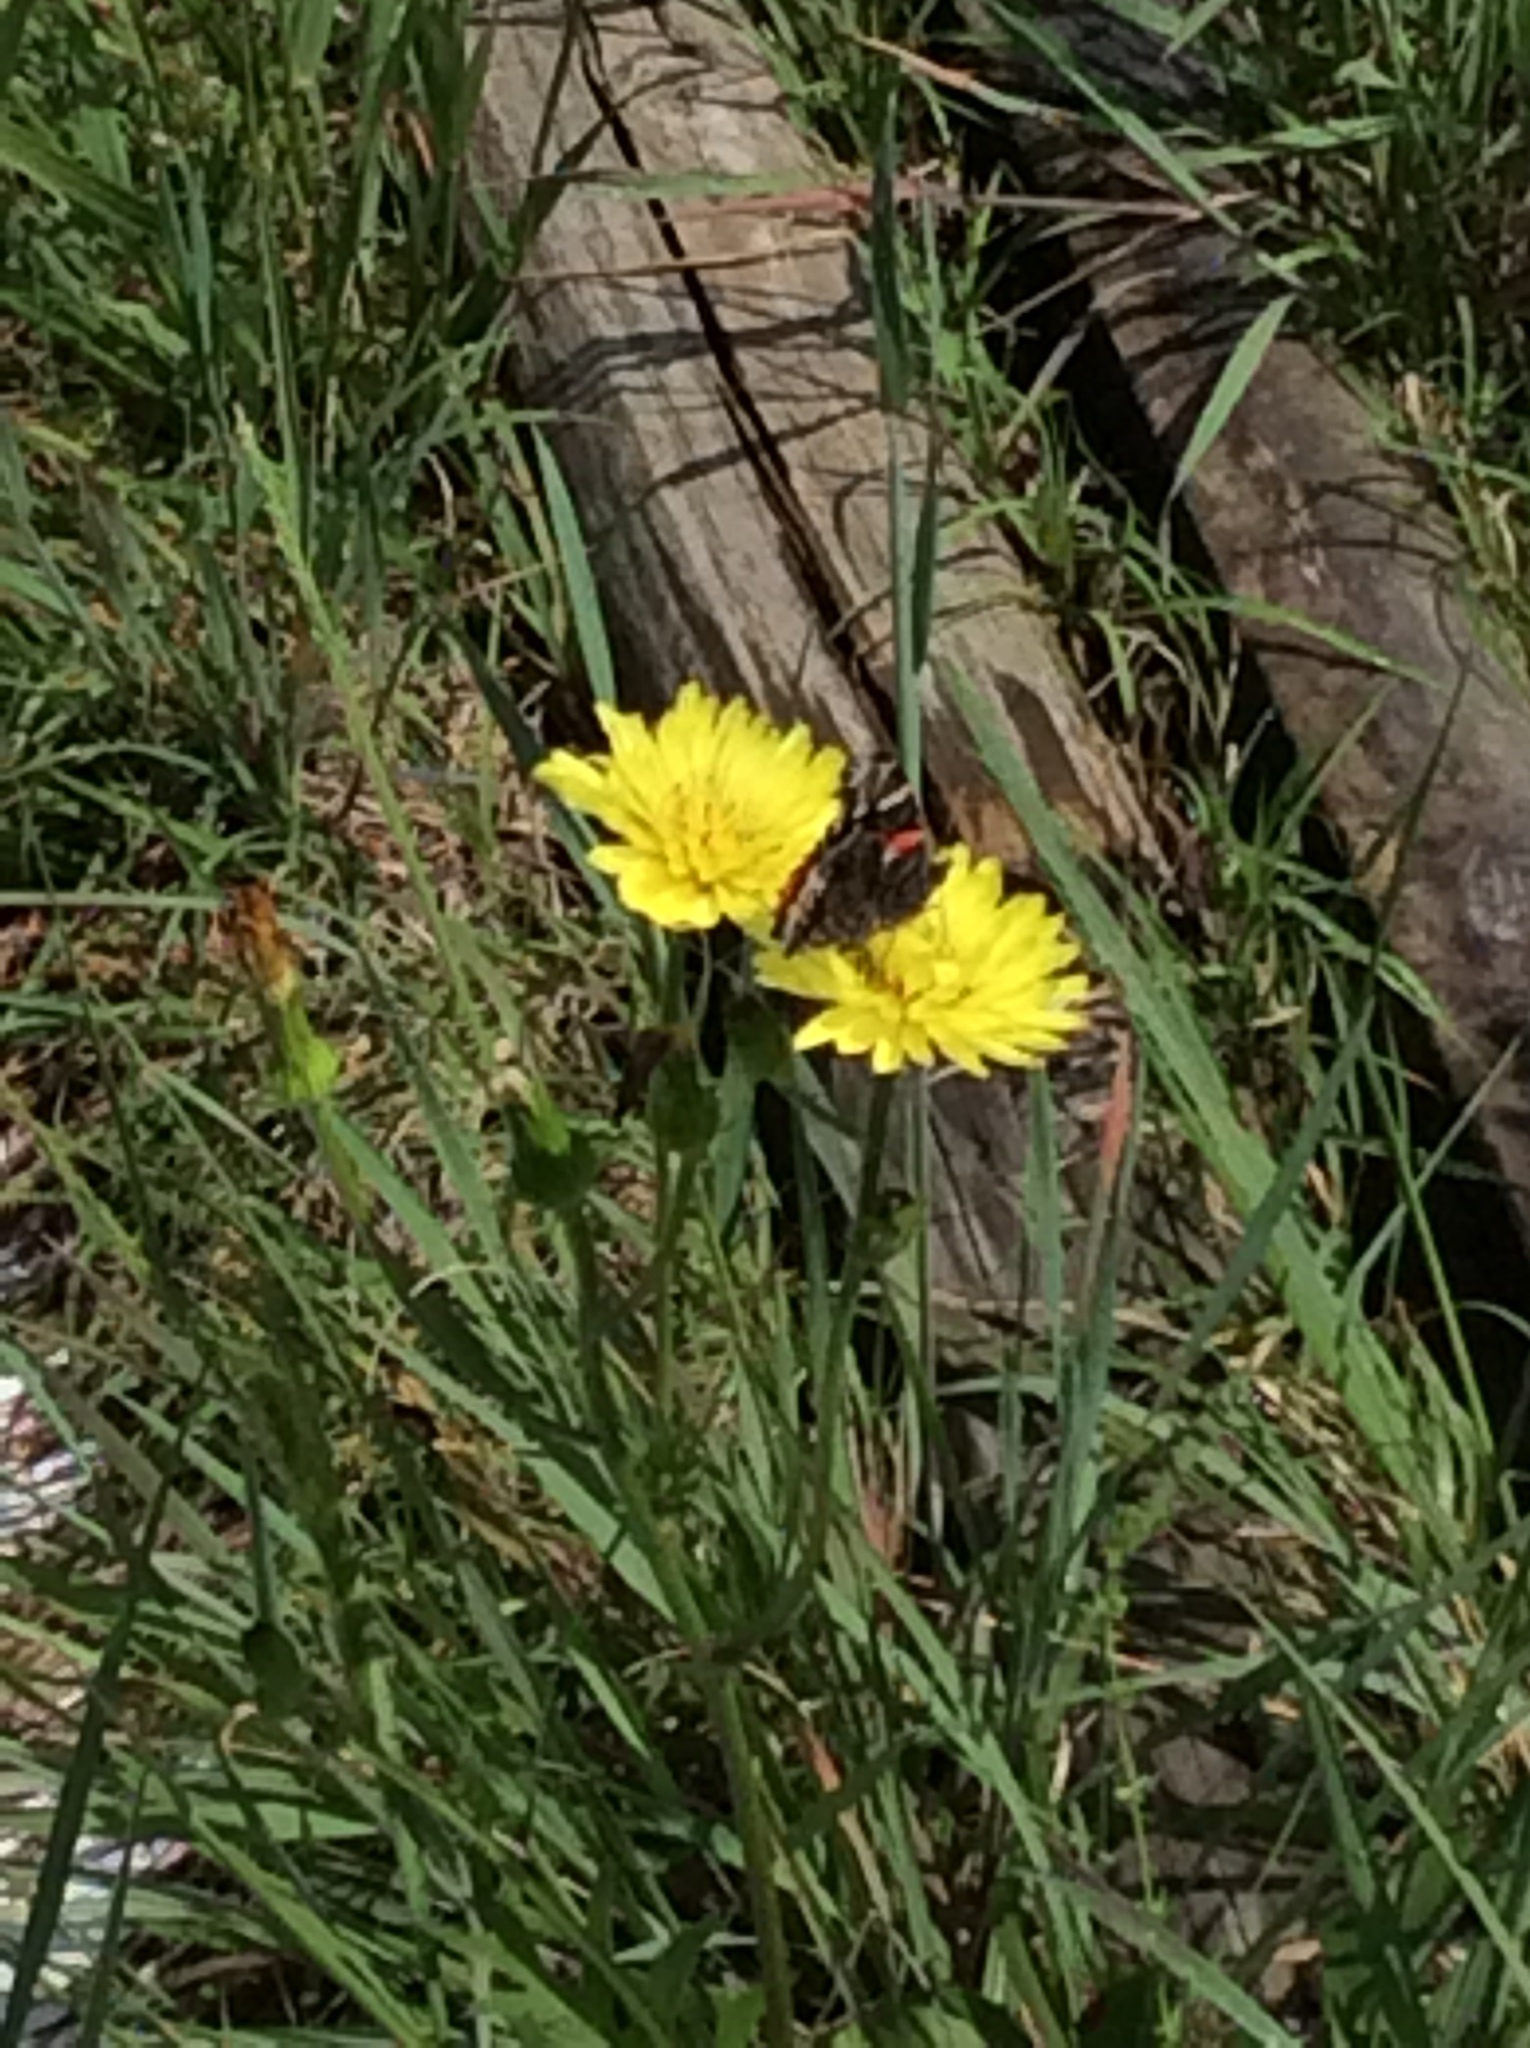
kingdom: Animalia
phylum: Arthropoda
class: Insecta
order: Lepidoptera
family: Nymphalidae
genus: Vanessa
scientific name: Vanessa atalanta
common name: Red admiral
